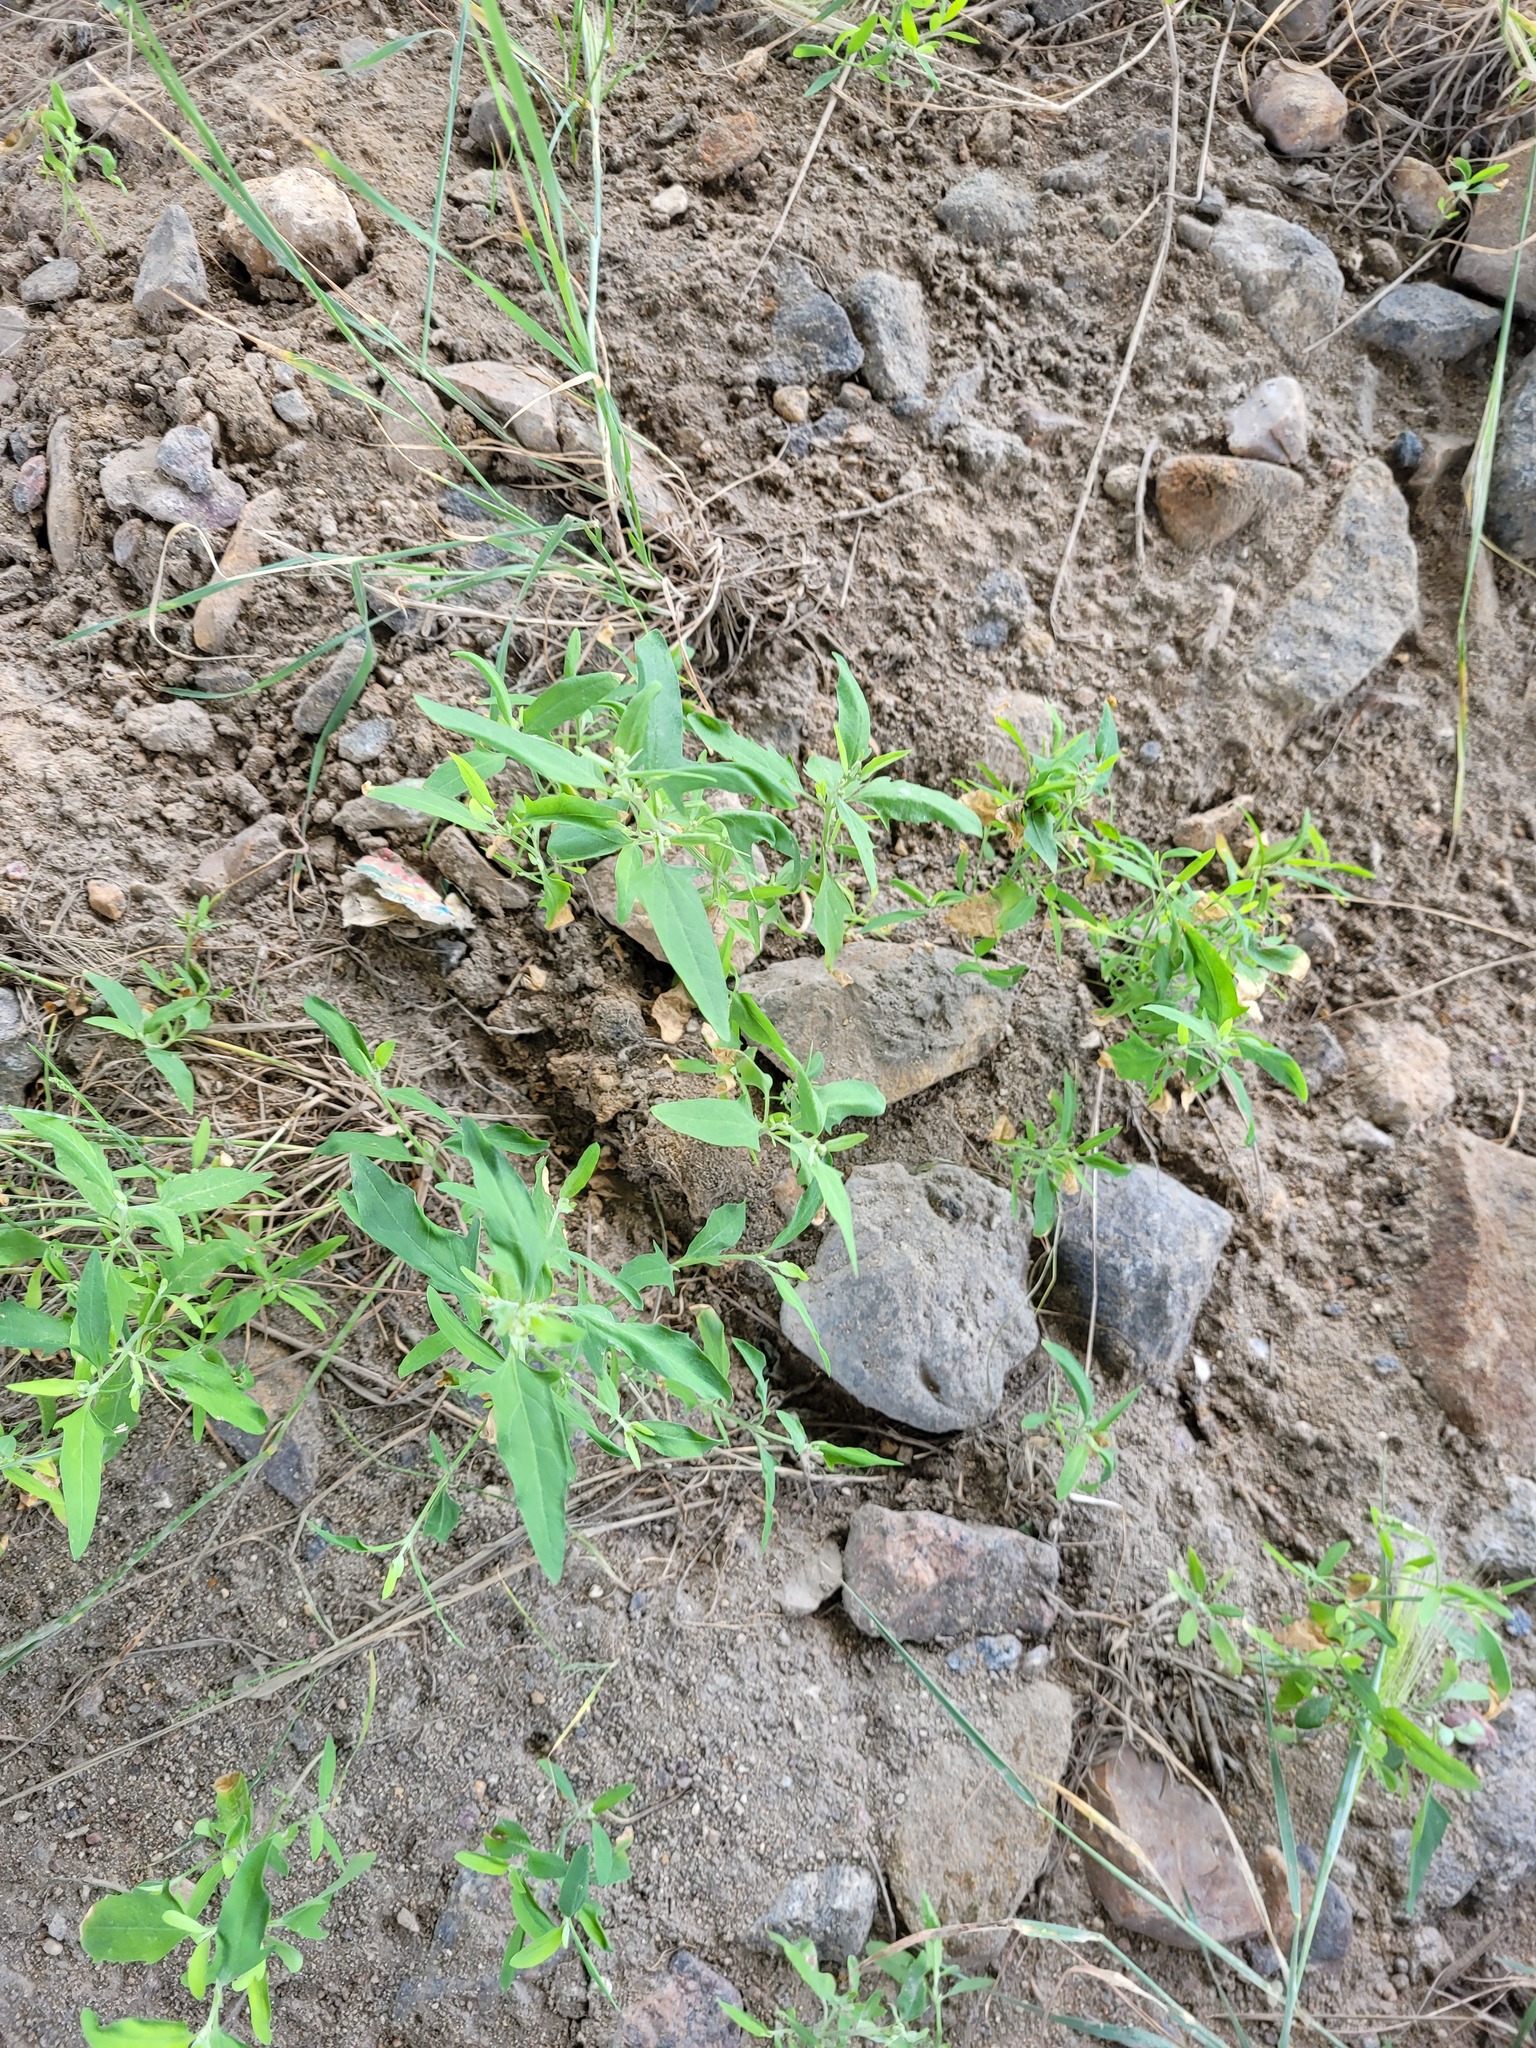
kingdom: Plantae
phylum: Tracheophyta
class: Magnoliopsida
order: Caryophyllales
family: Amaranthaceae
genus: Atriplex
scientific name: Atriplex patula
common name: Common orache
